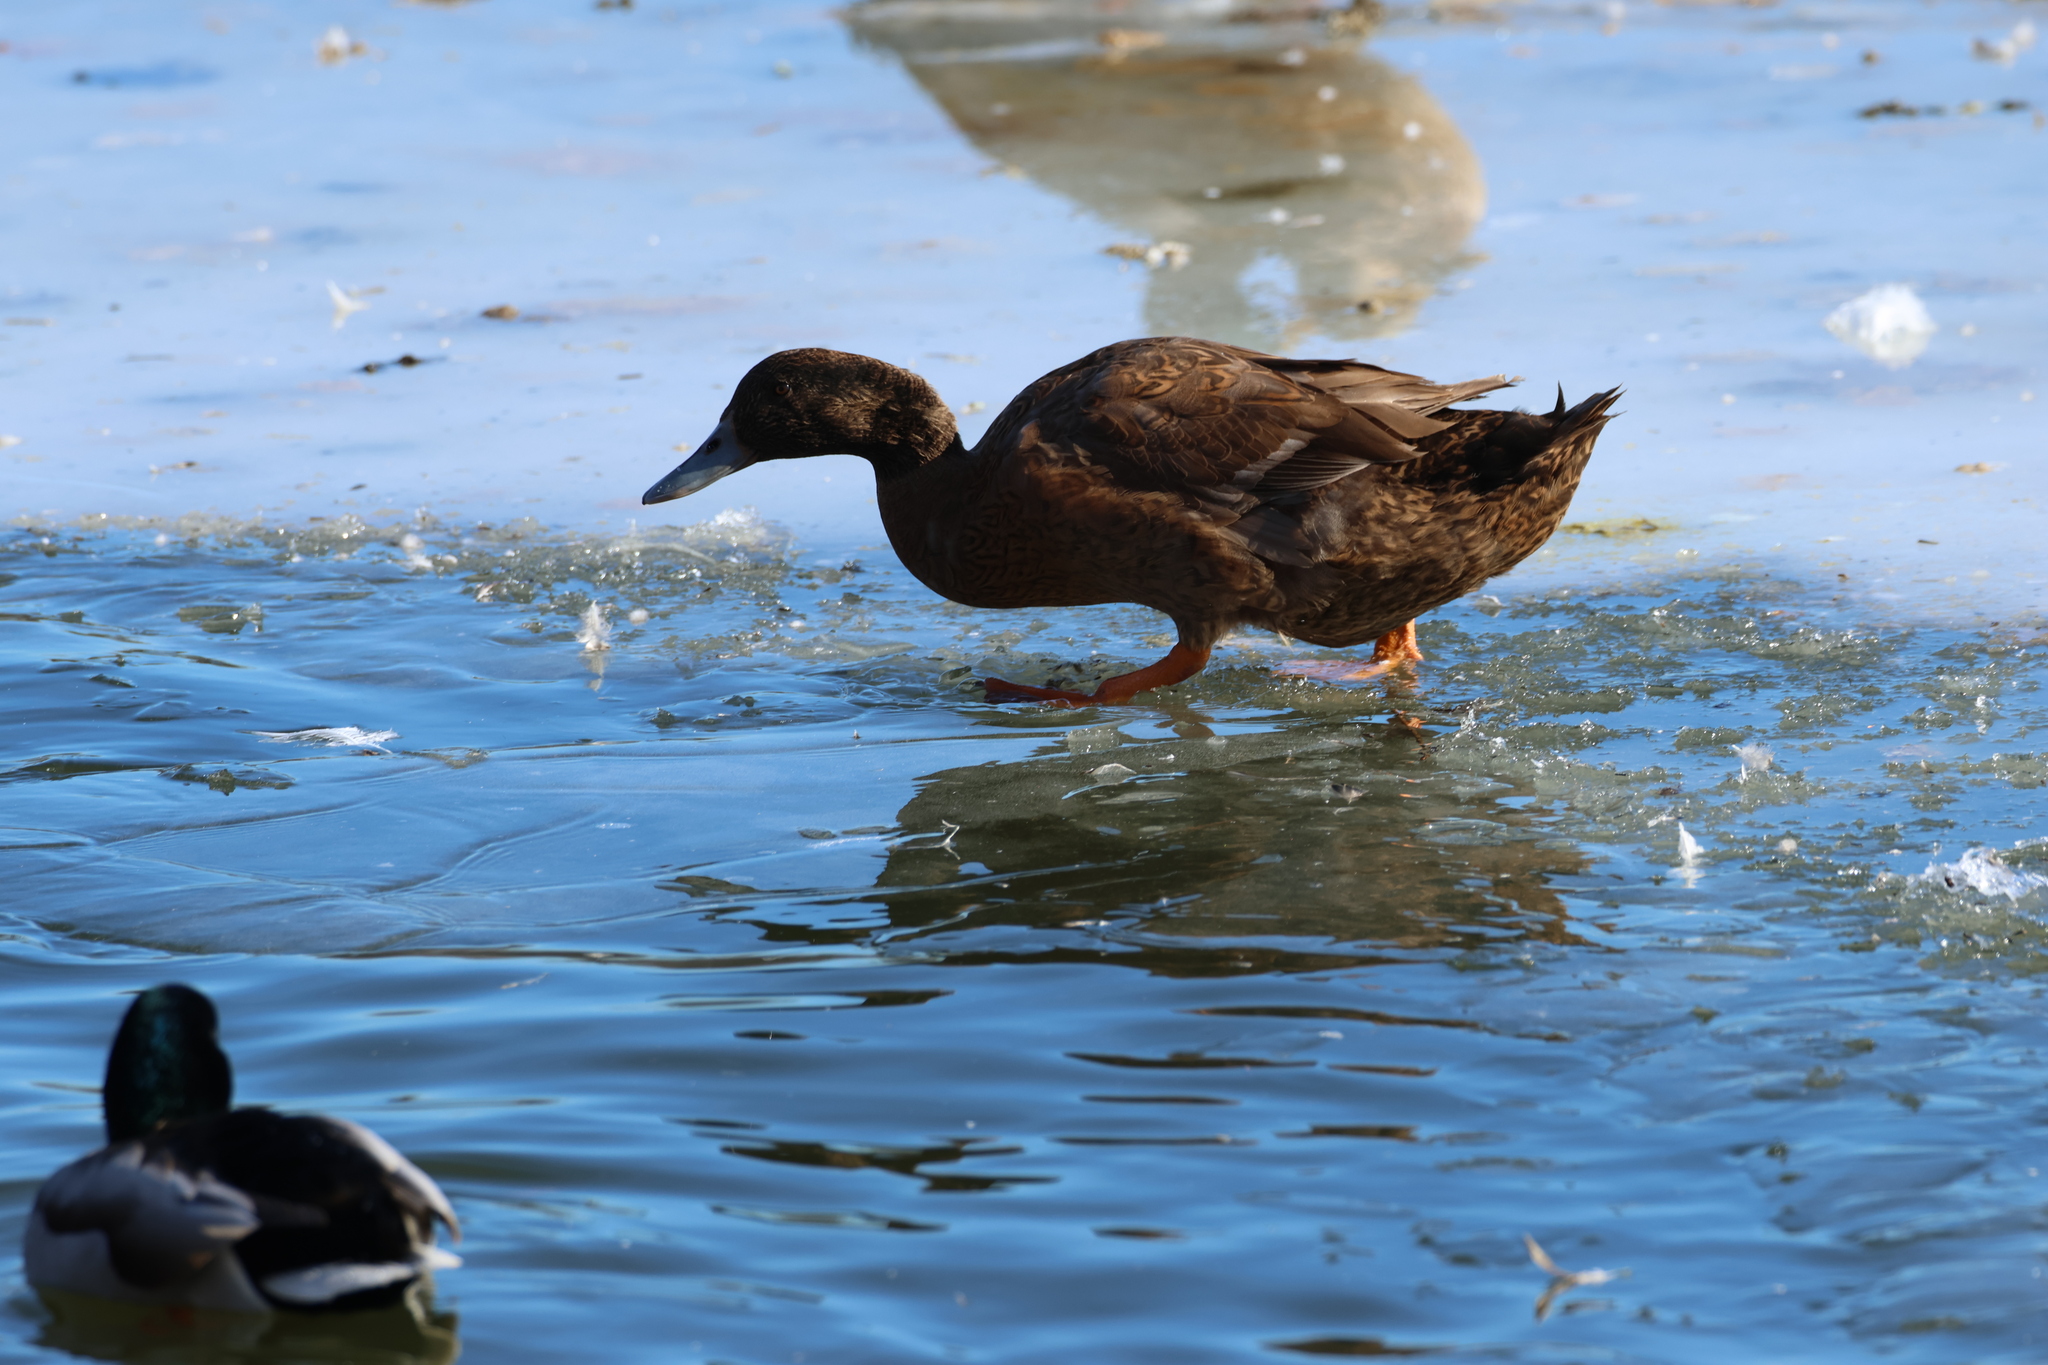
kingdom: Animalia
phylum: Chordata
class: Aves
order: Anseriformes
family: Anatidae
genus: Anas
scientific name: Anas platyrhynchos
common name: Mallard
